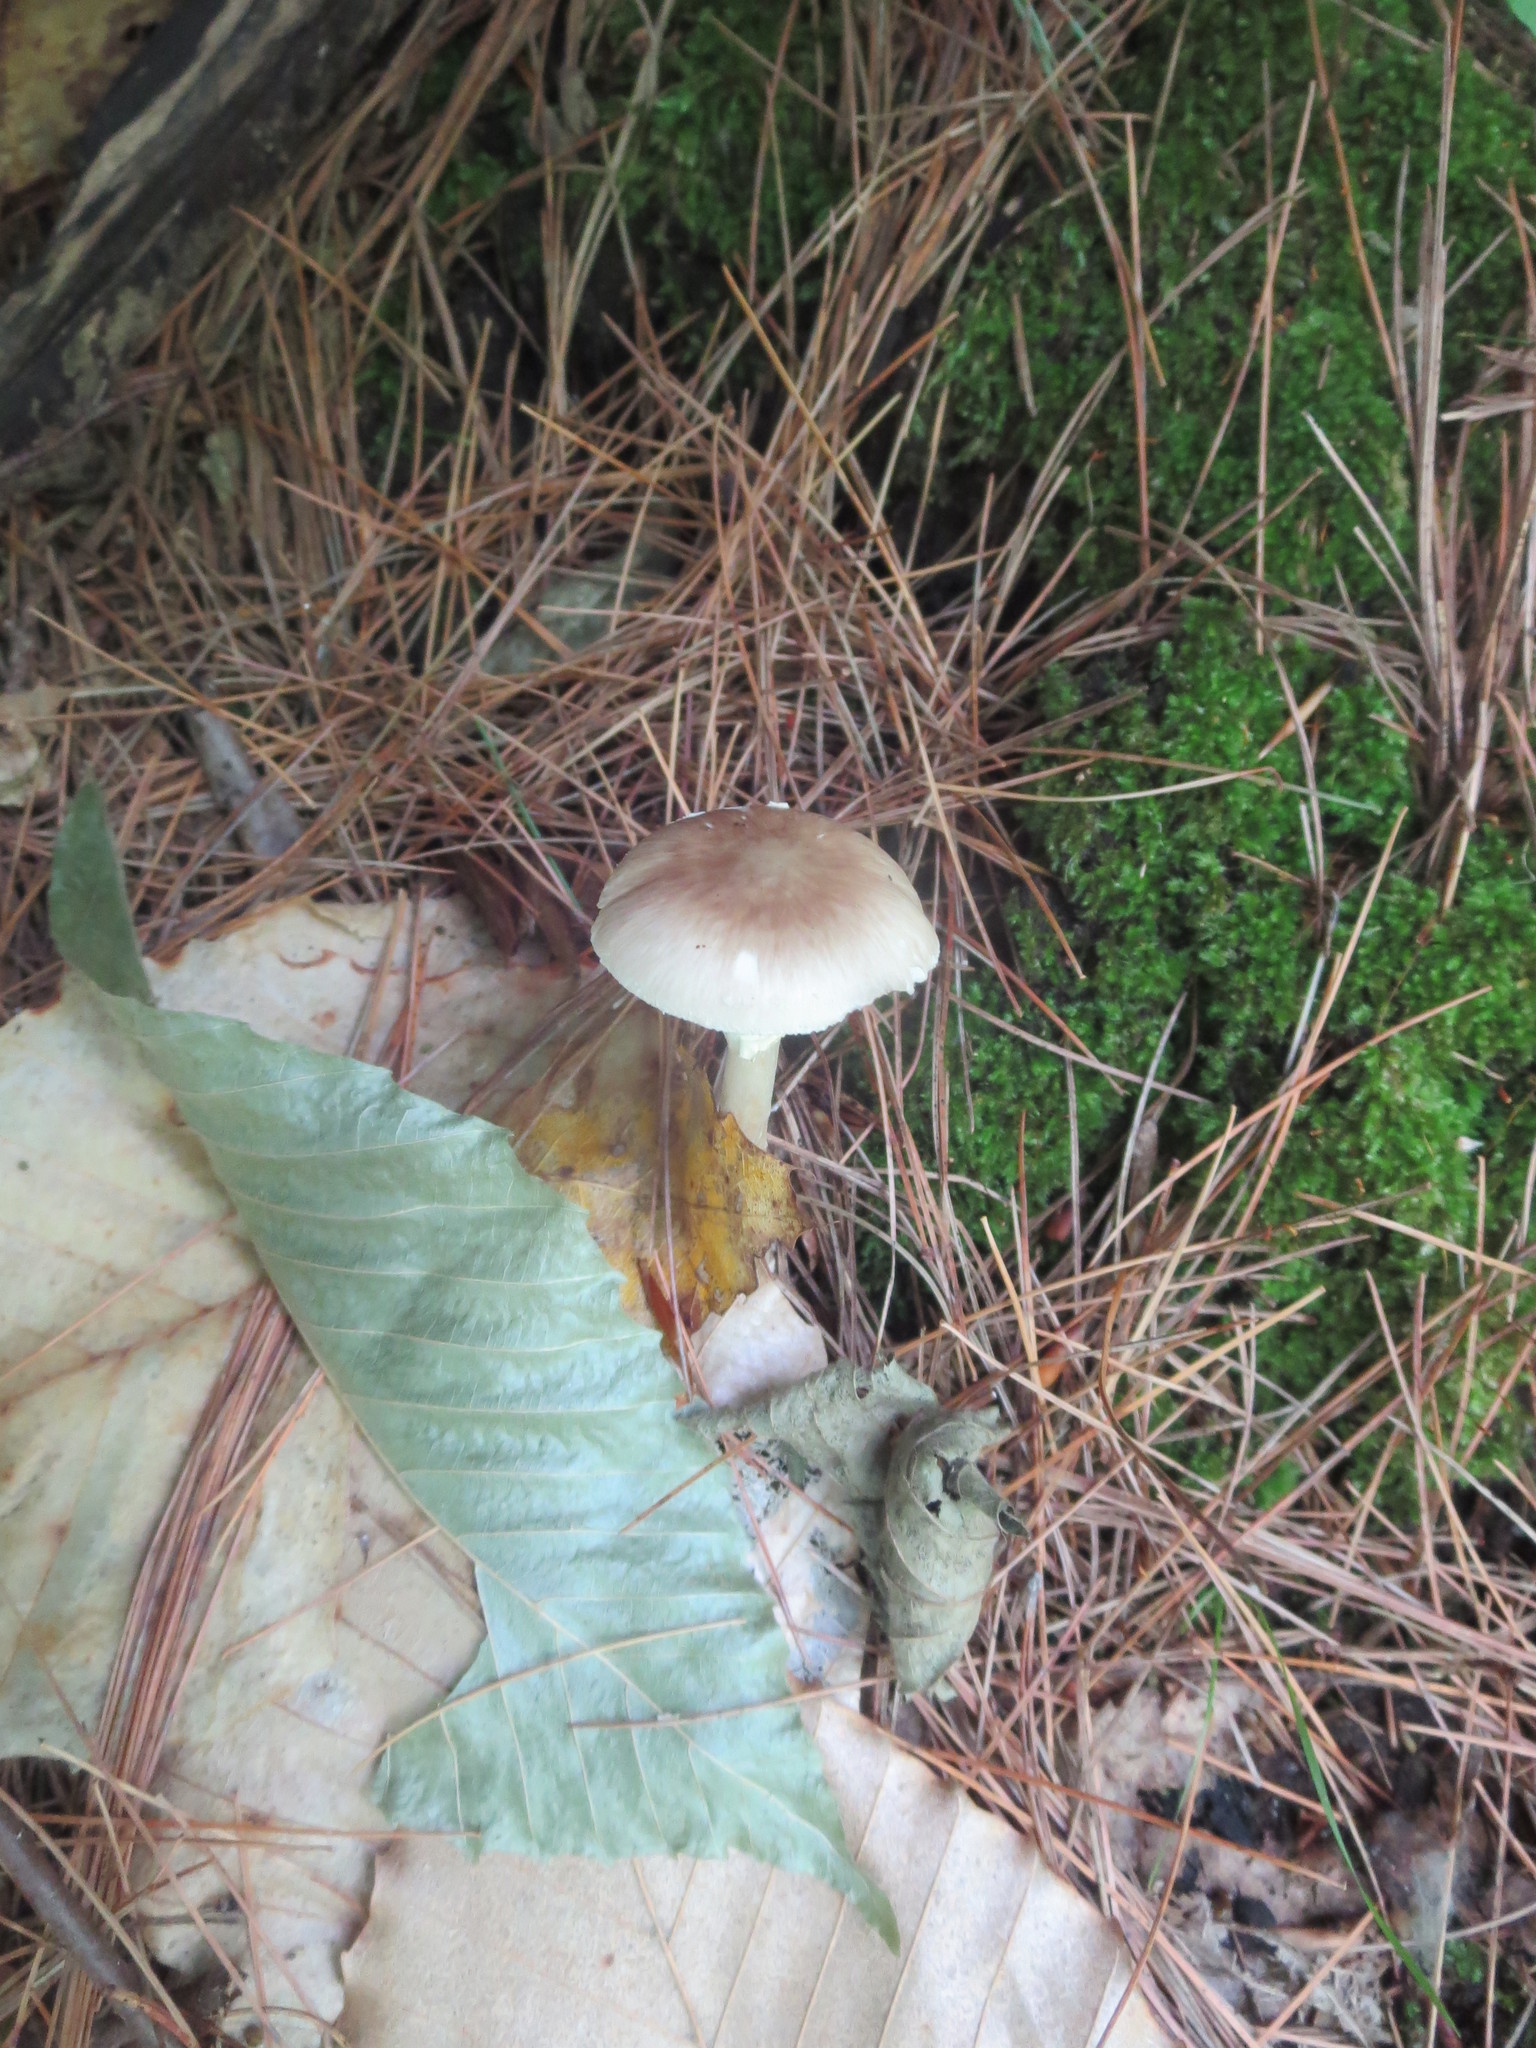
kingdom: Fungi
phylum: Basidiomycota
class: Agaricomycetes
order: Agaricales
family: Amanitaceae
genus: Amanita
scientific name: Amanita solaniolens
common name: Old potato amanita
